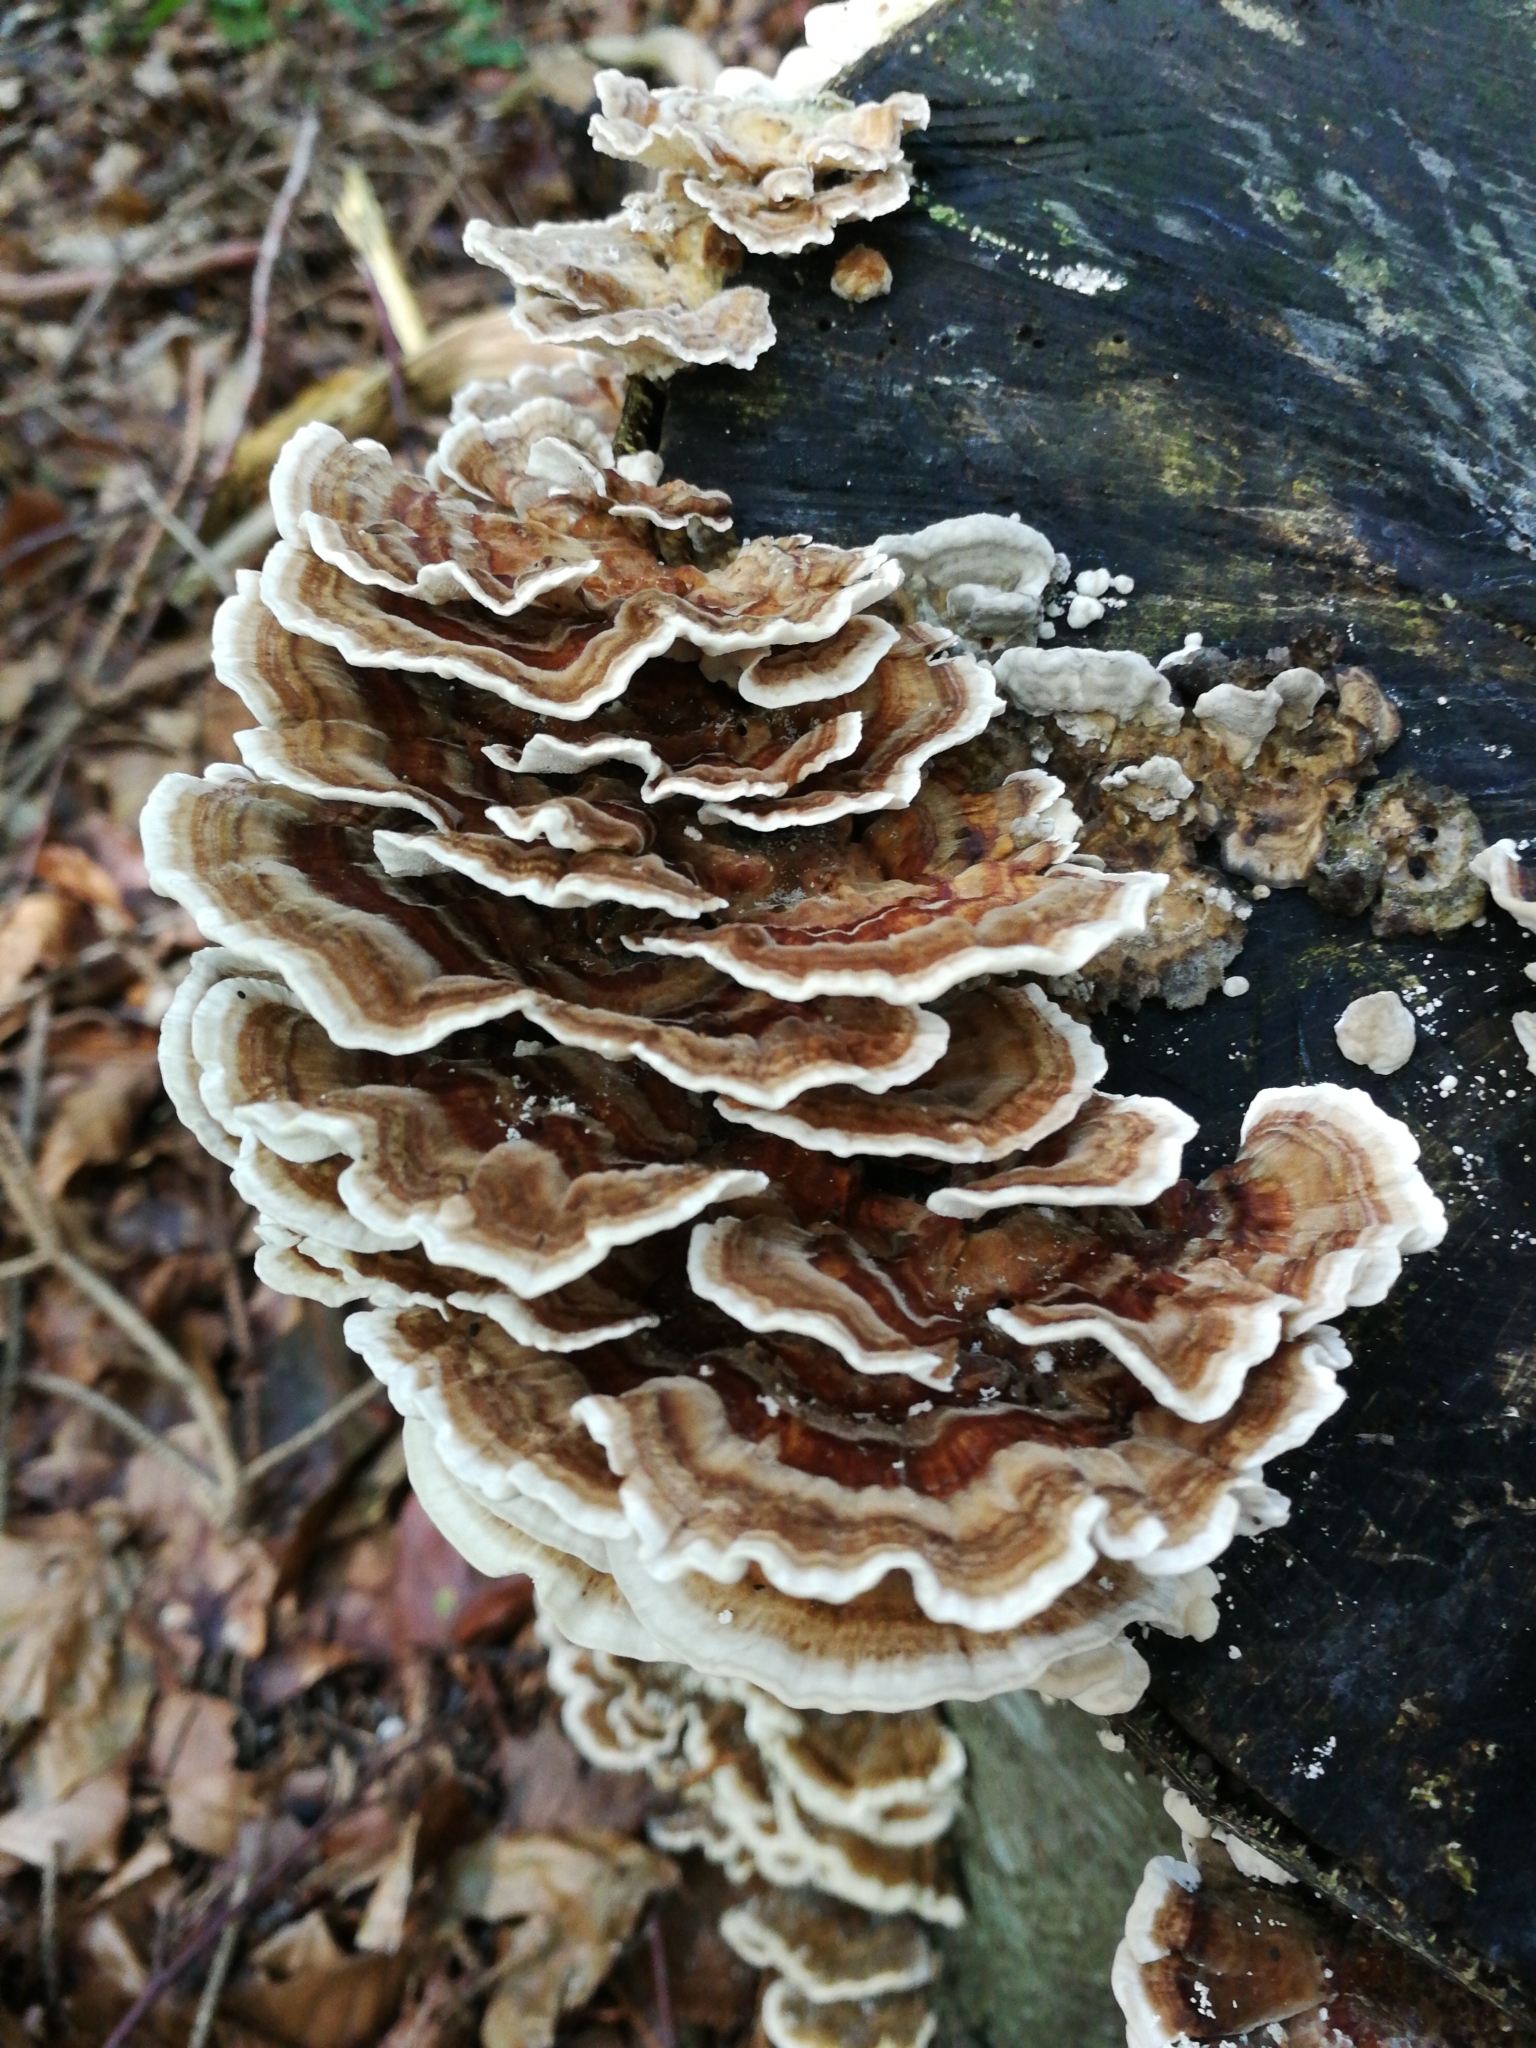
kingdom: Fungi
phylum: Basidiomycota
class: Agaricomycetes
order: Polyporales
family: Polyporaceae
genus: Trametes
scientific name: Trametes versicolor
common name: Turkeytail
